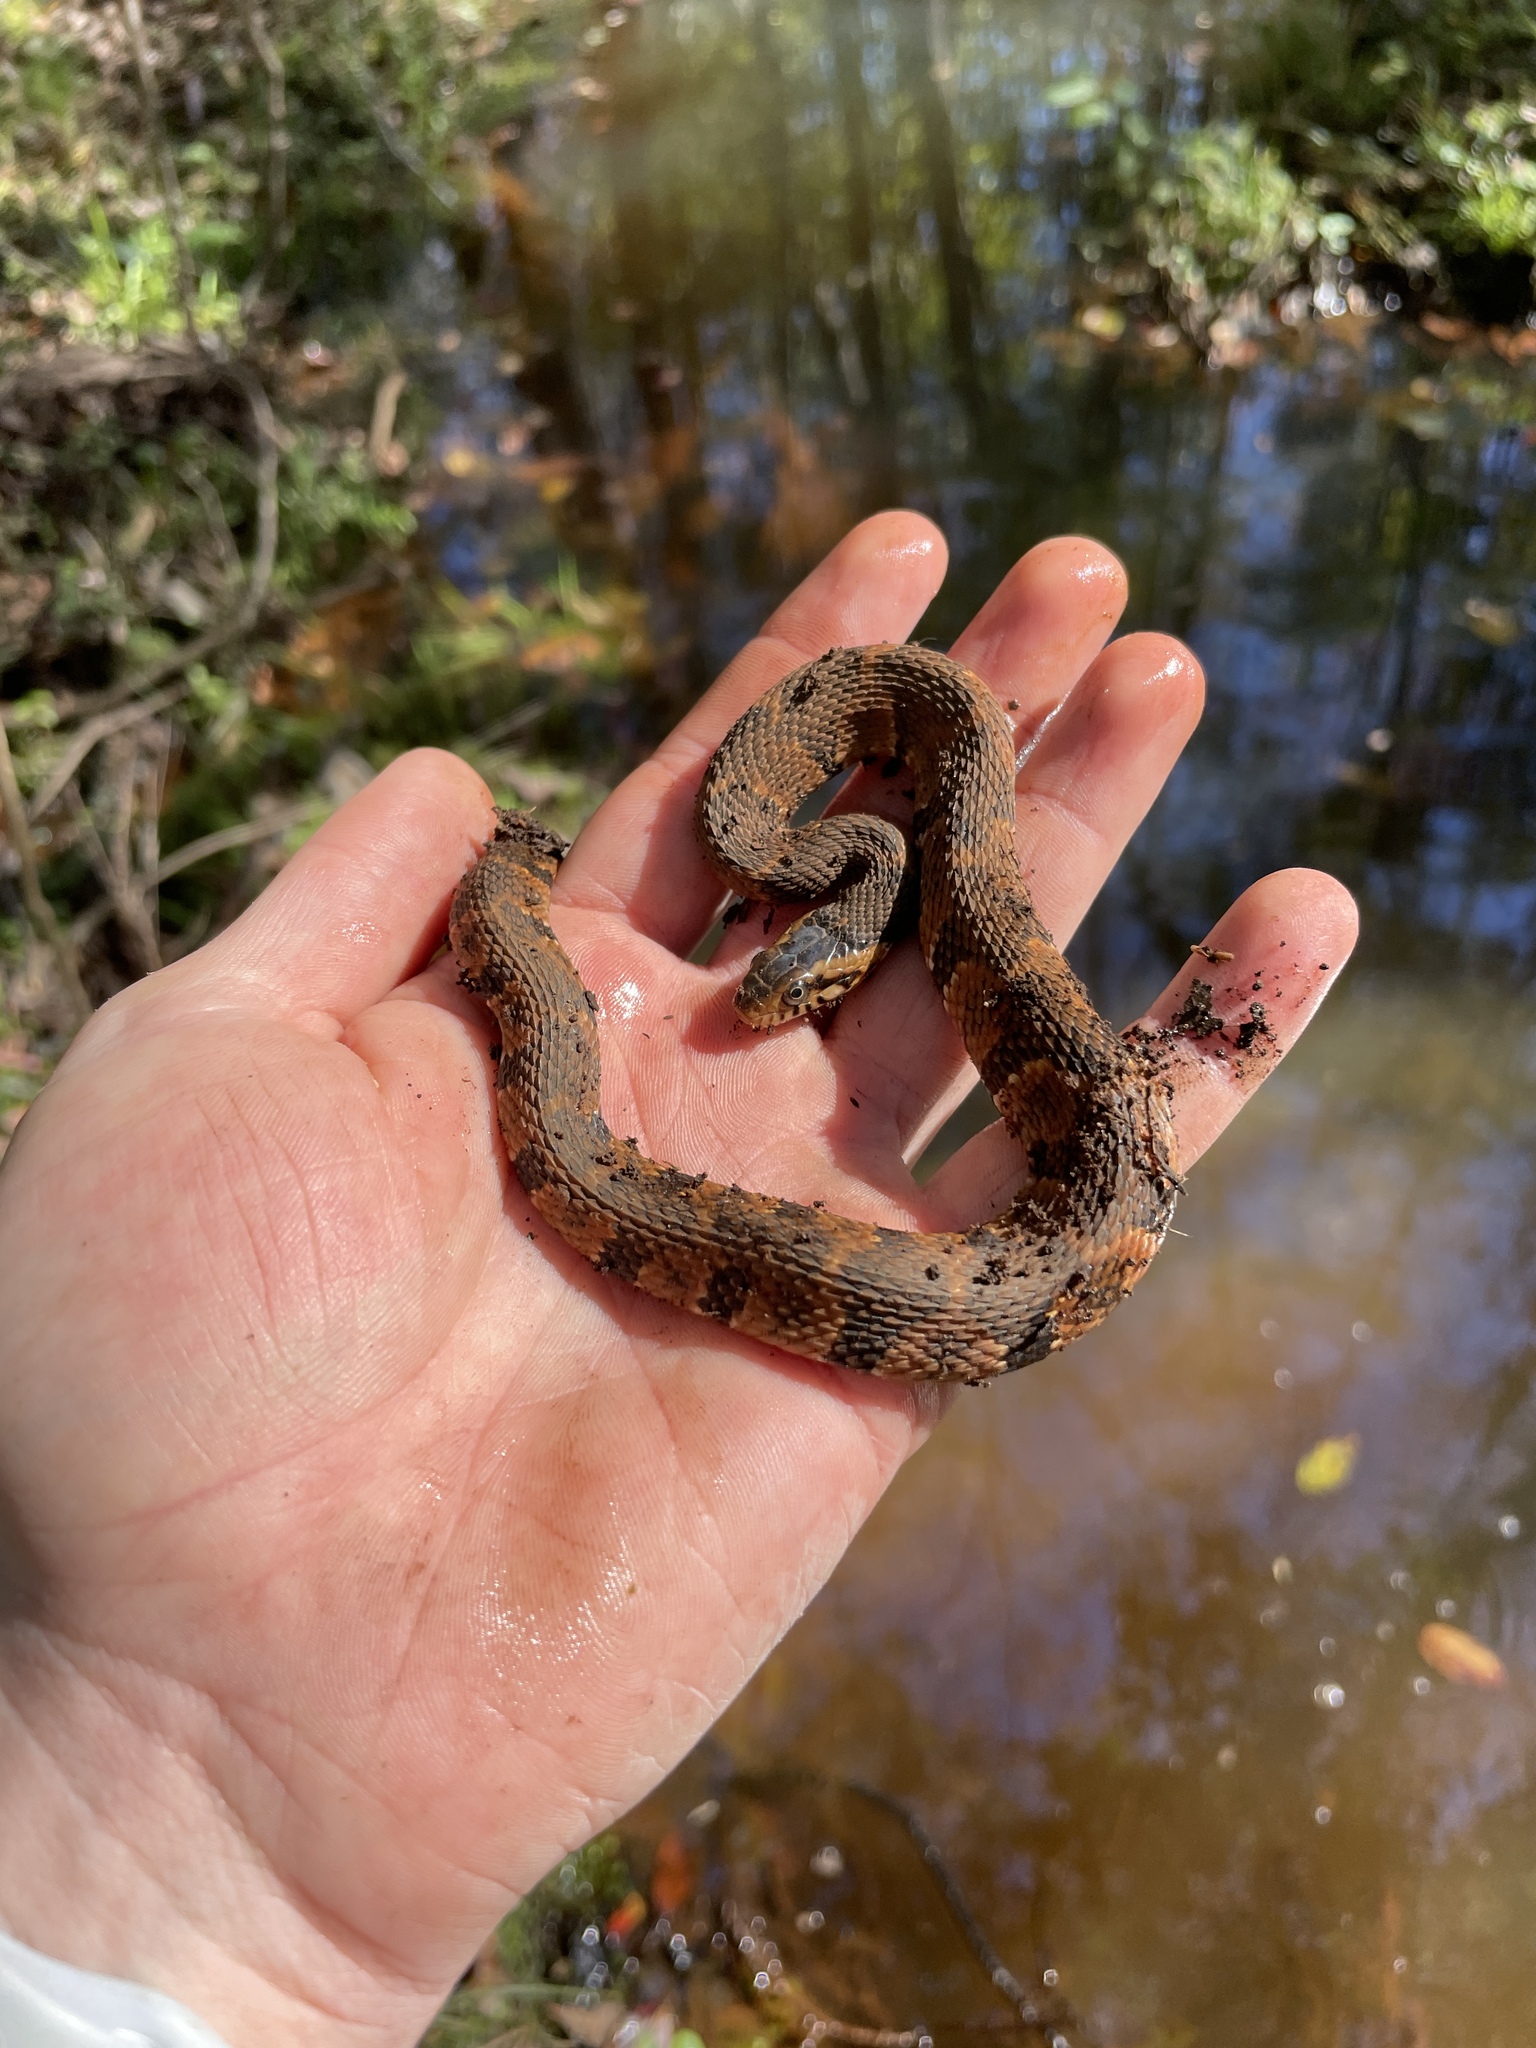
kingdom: Animalia
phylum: Chordata
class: Squamata
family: Colubridae
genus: Nerodia
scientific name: Nerodia fasciata
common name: Southern water snake
